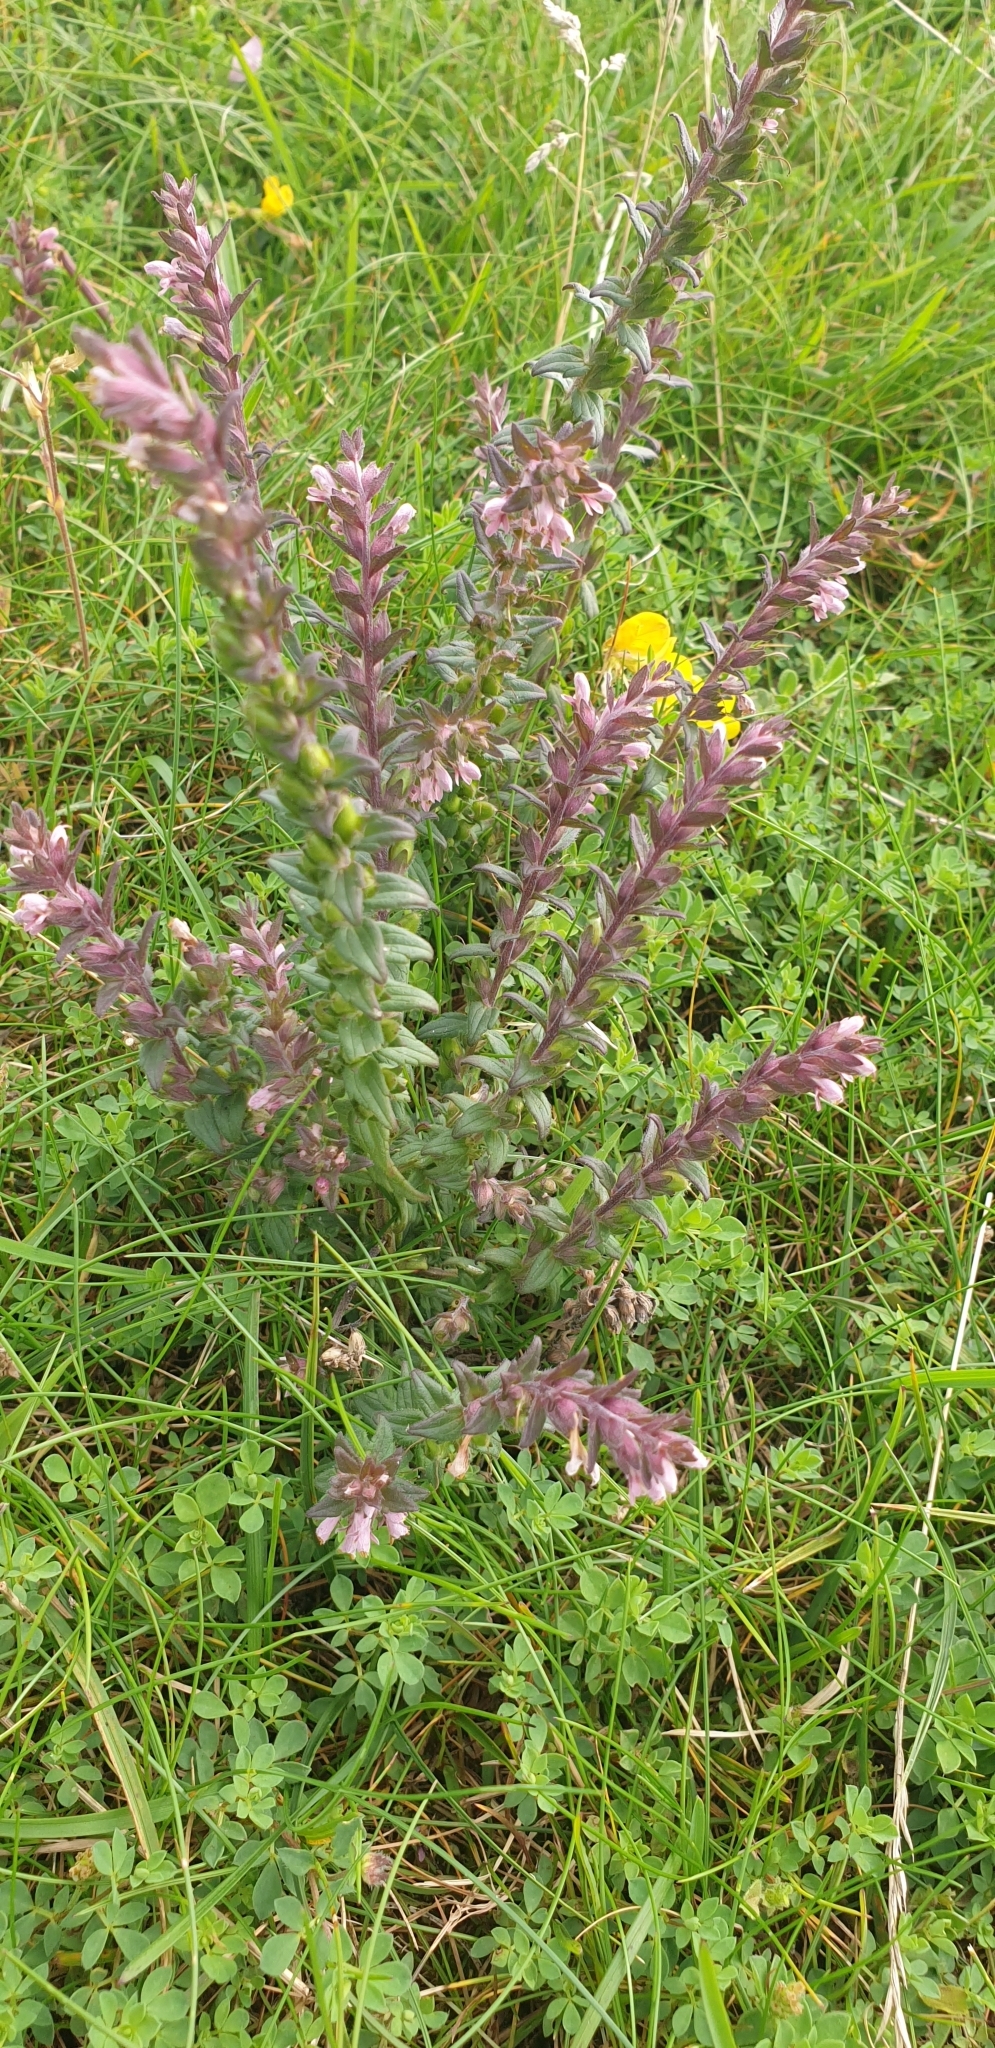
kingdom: Plantae
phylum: Tracheophyta
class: Magnoliopsida
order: Lamiales
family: Orobanchaceae
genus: Odontites
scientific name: Odontites vernus
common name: Red bartsia
